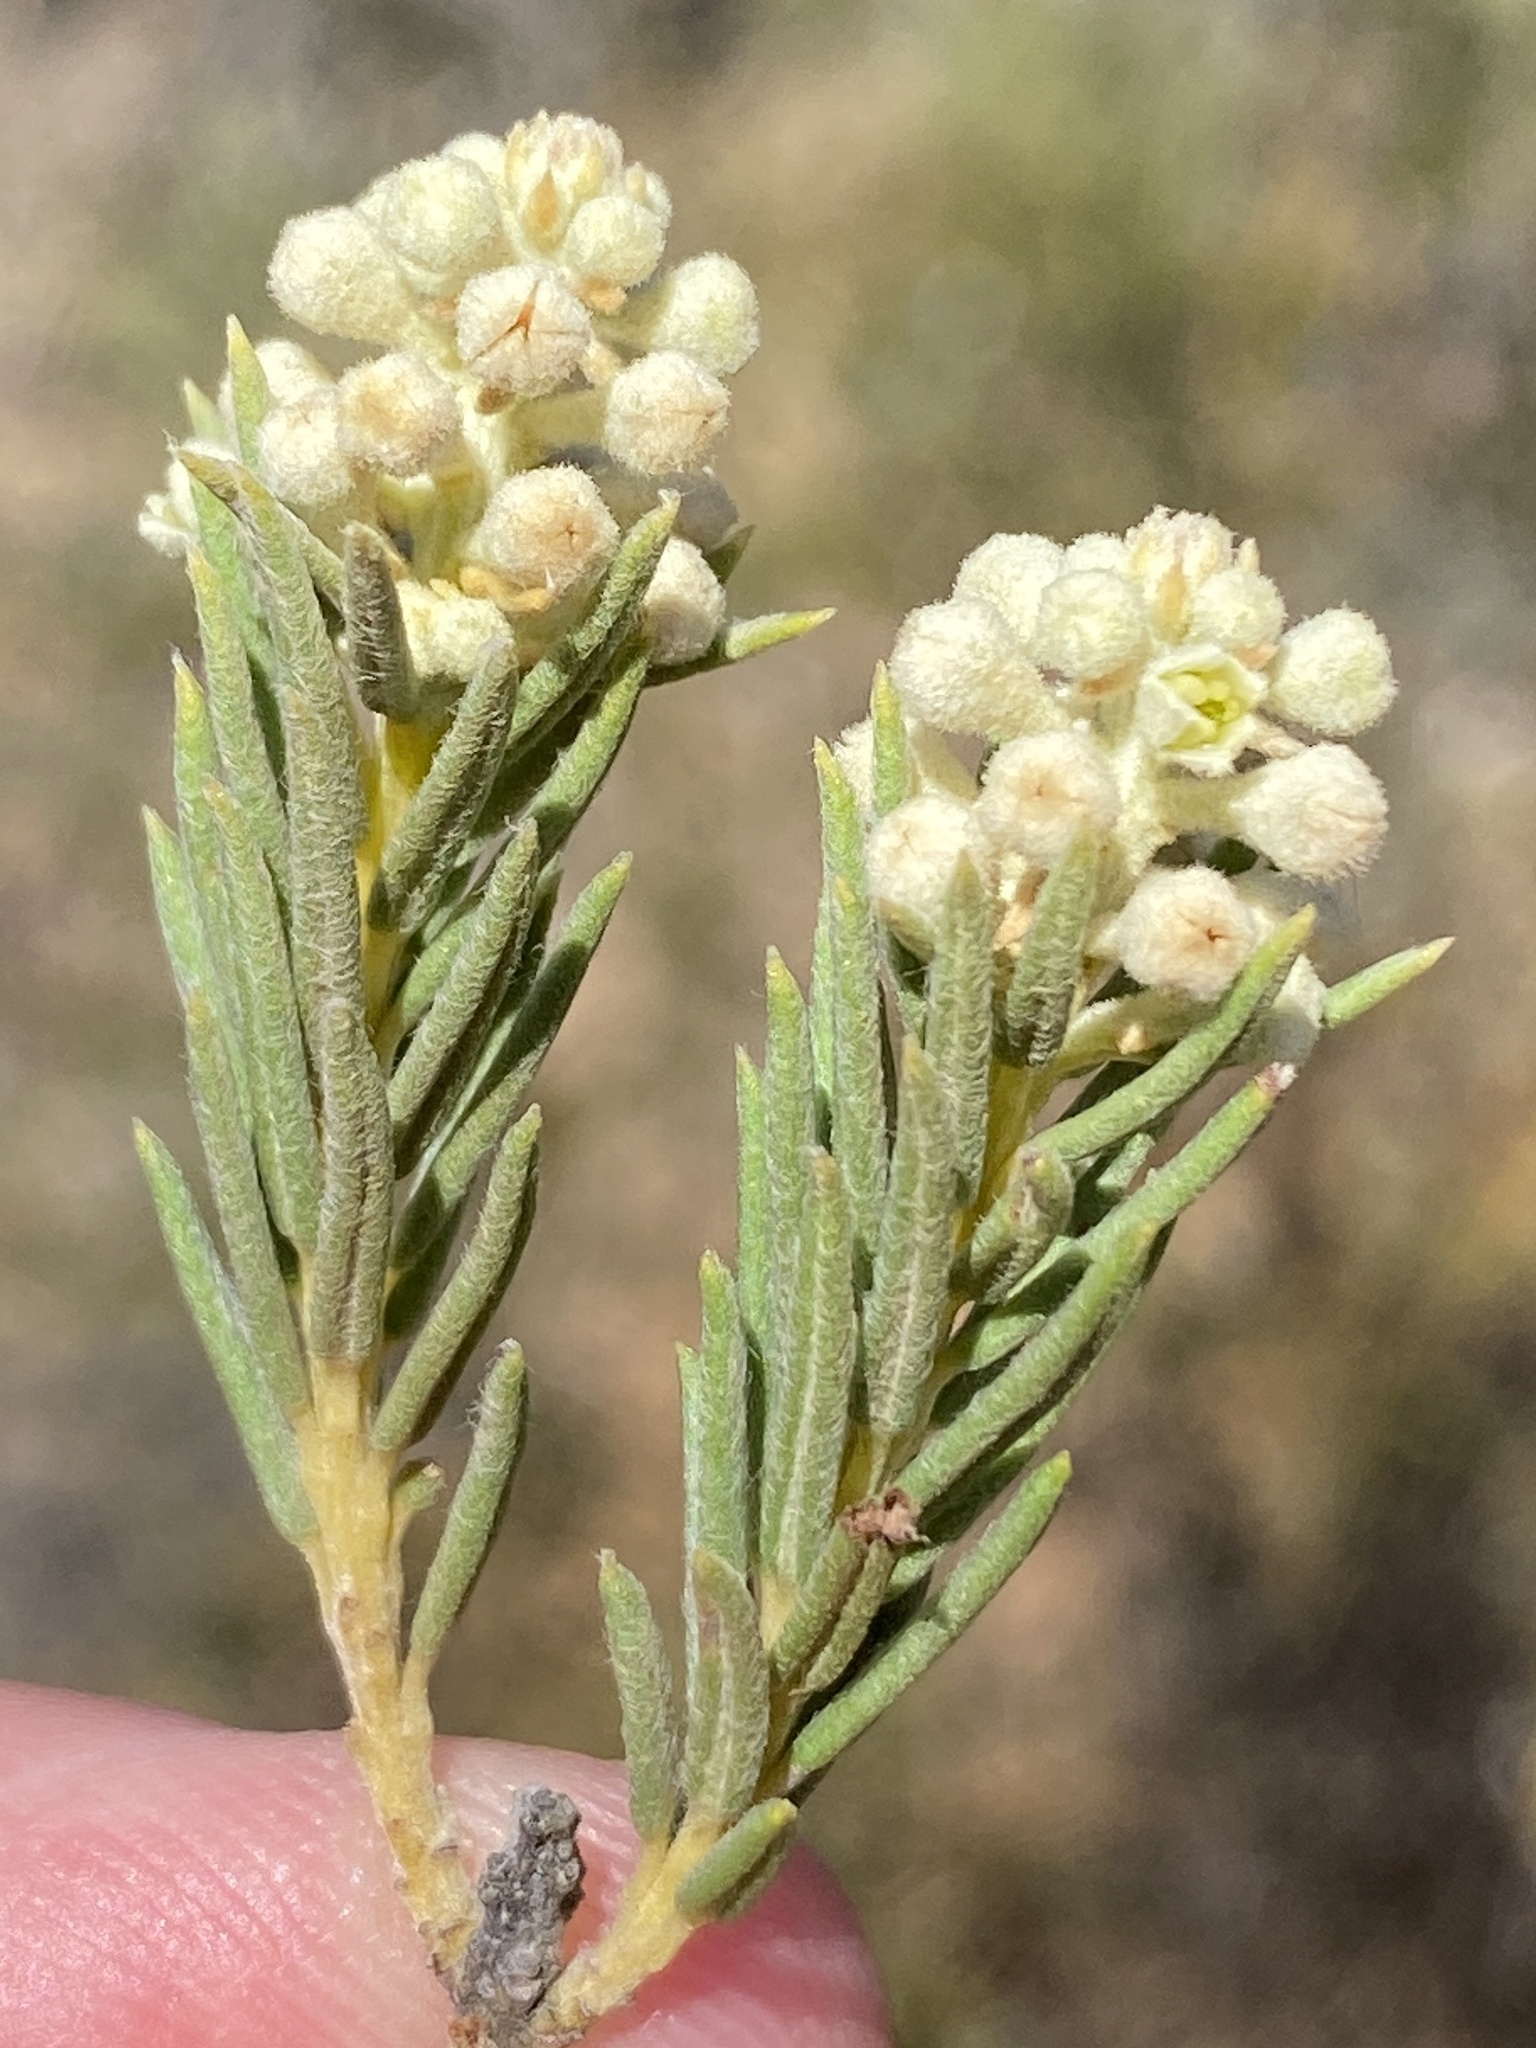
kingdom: Plantae
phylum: Tracheophyta
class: Magnoliopsida
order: Rosales
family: Rhamnaceae
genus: Phylica
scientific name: Phylica rigidifolia
